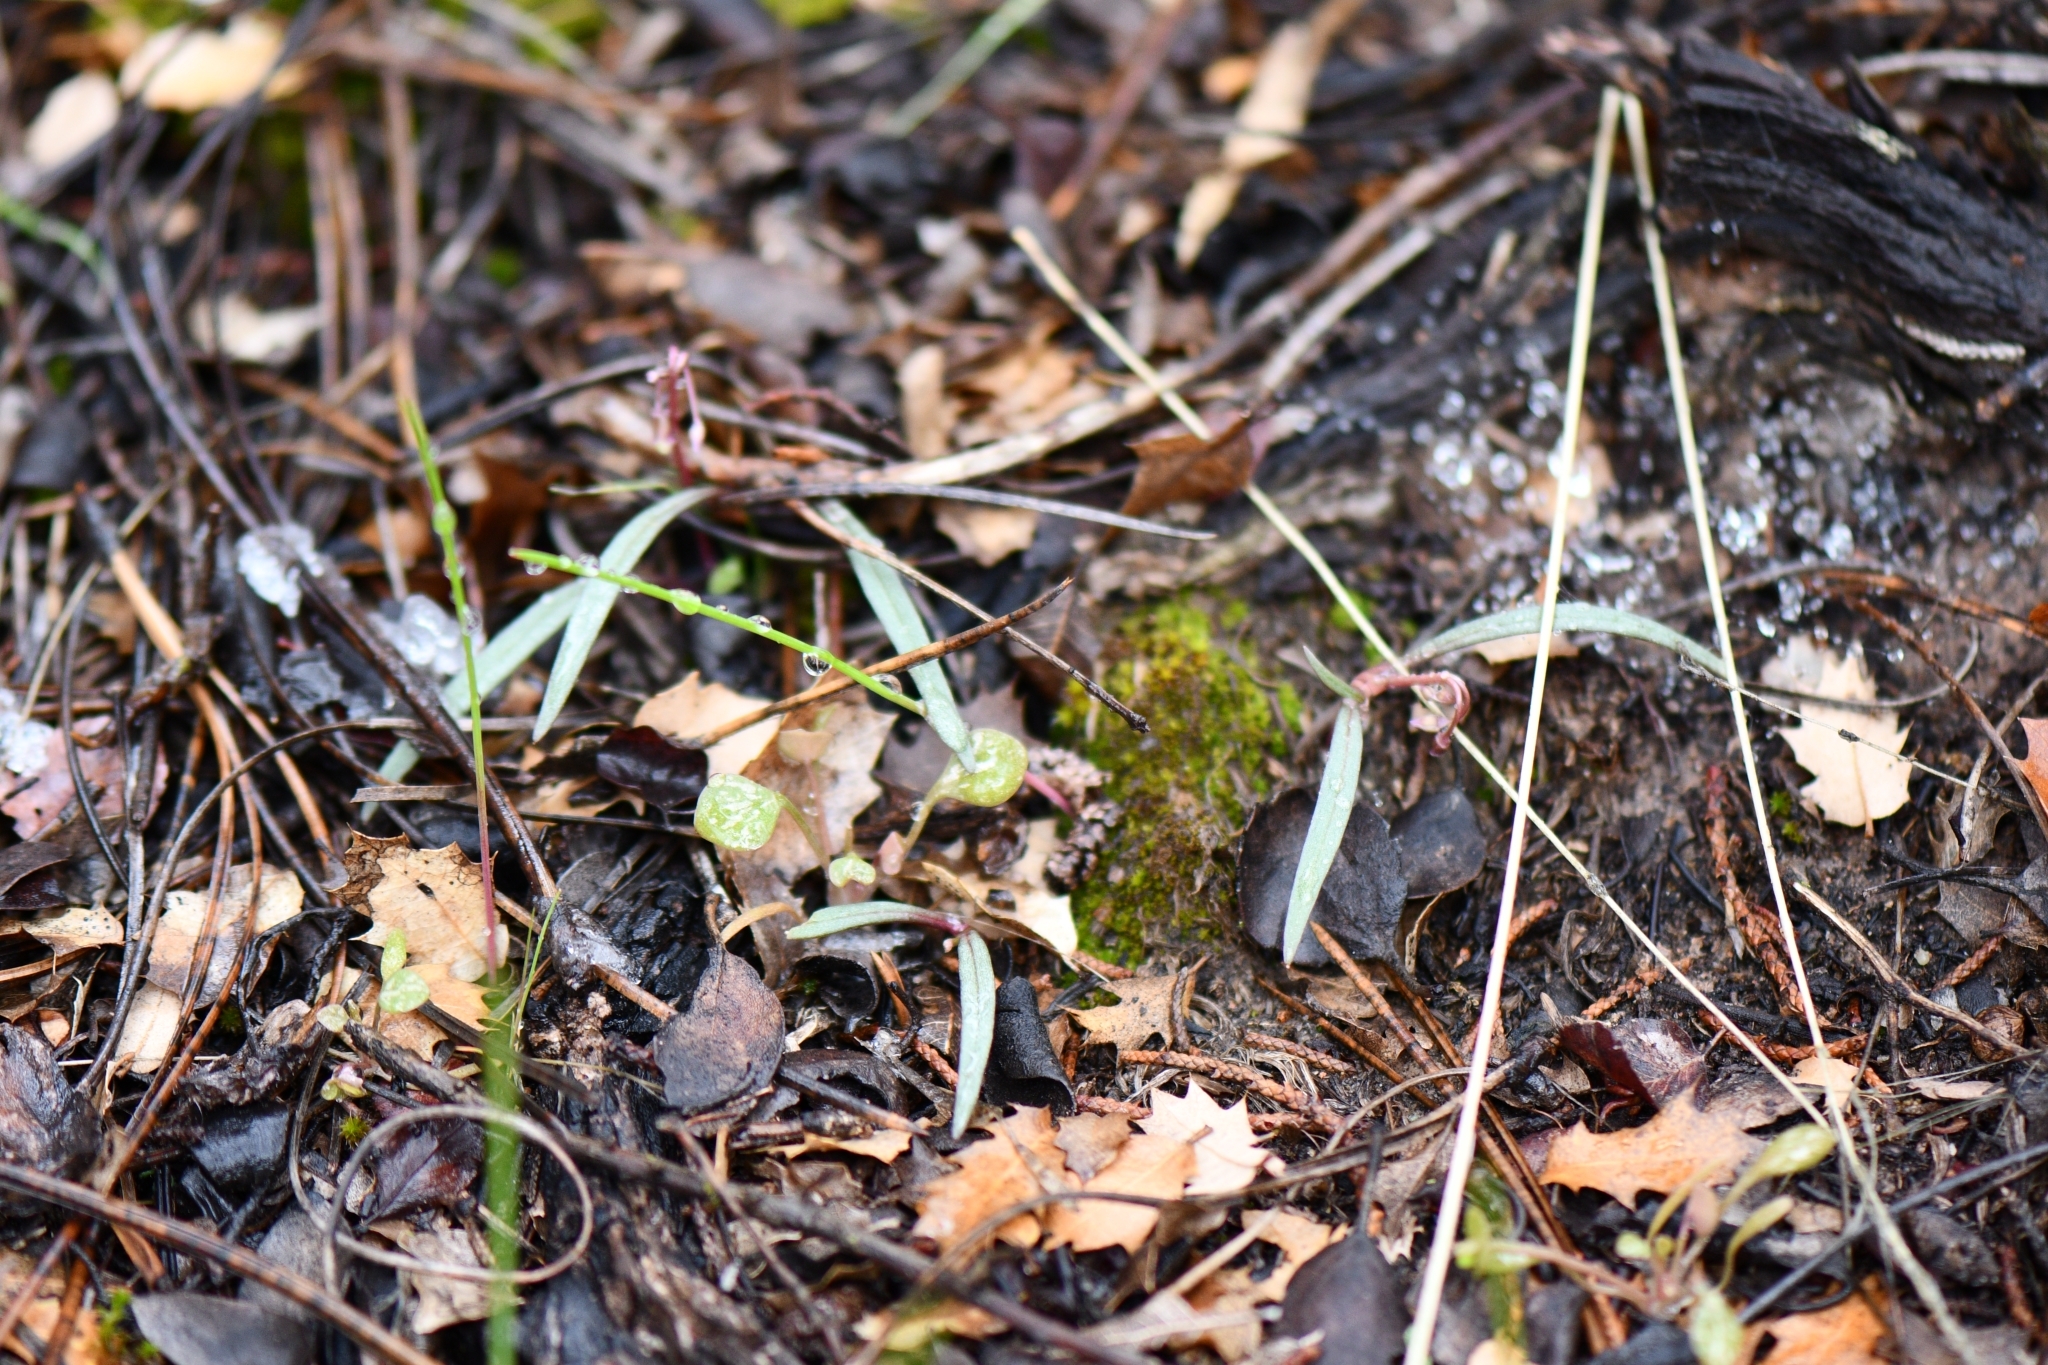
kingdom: Plantae
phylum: Tracheophyta
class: Magnoliopsida
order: Caryophyllales
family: Montiaceae
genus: Claytonia
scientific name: Claytonia rosea
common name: Rocky mountain spring-beauty
